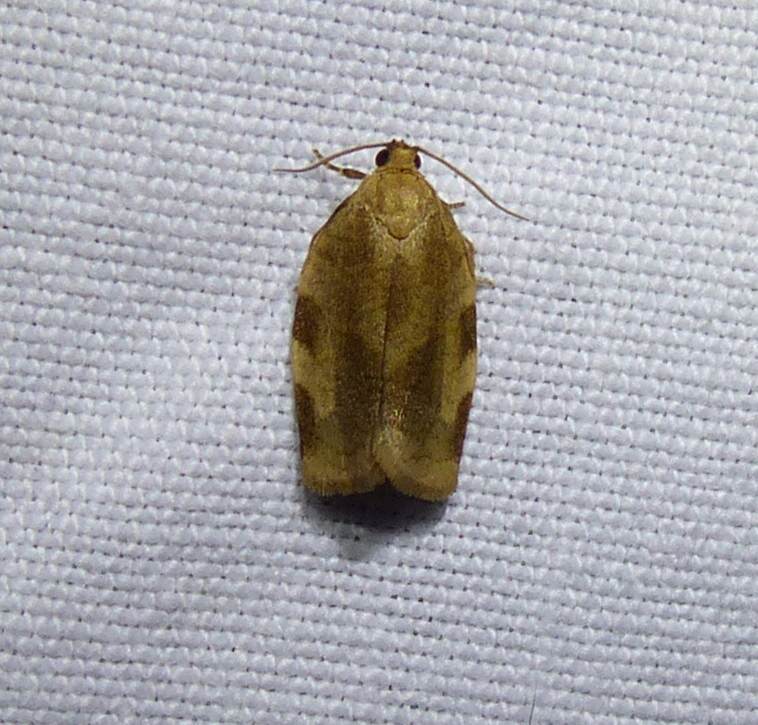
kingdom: Animalia
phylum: Arthropoda
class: Insecta
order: Lepidoptera
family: Tortricidae
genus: Choristoneura
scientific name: Choristoneura fractivittana
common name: Broken-banded leafroller moth
